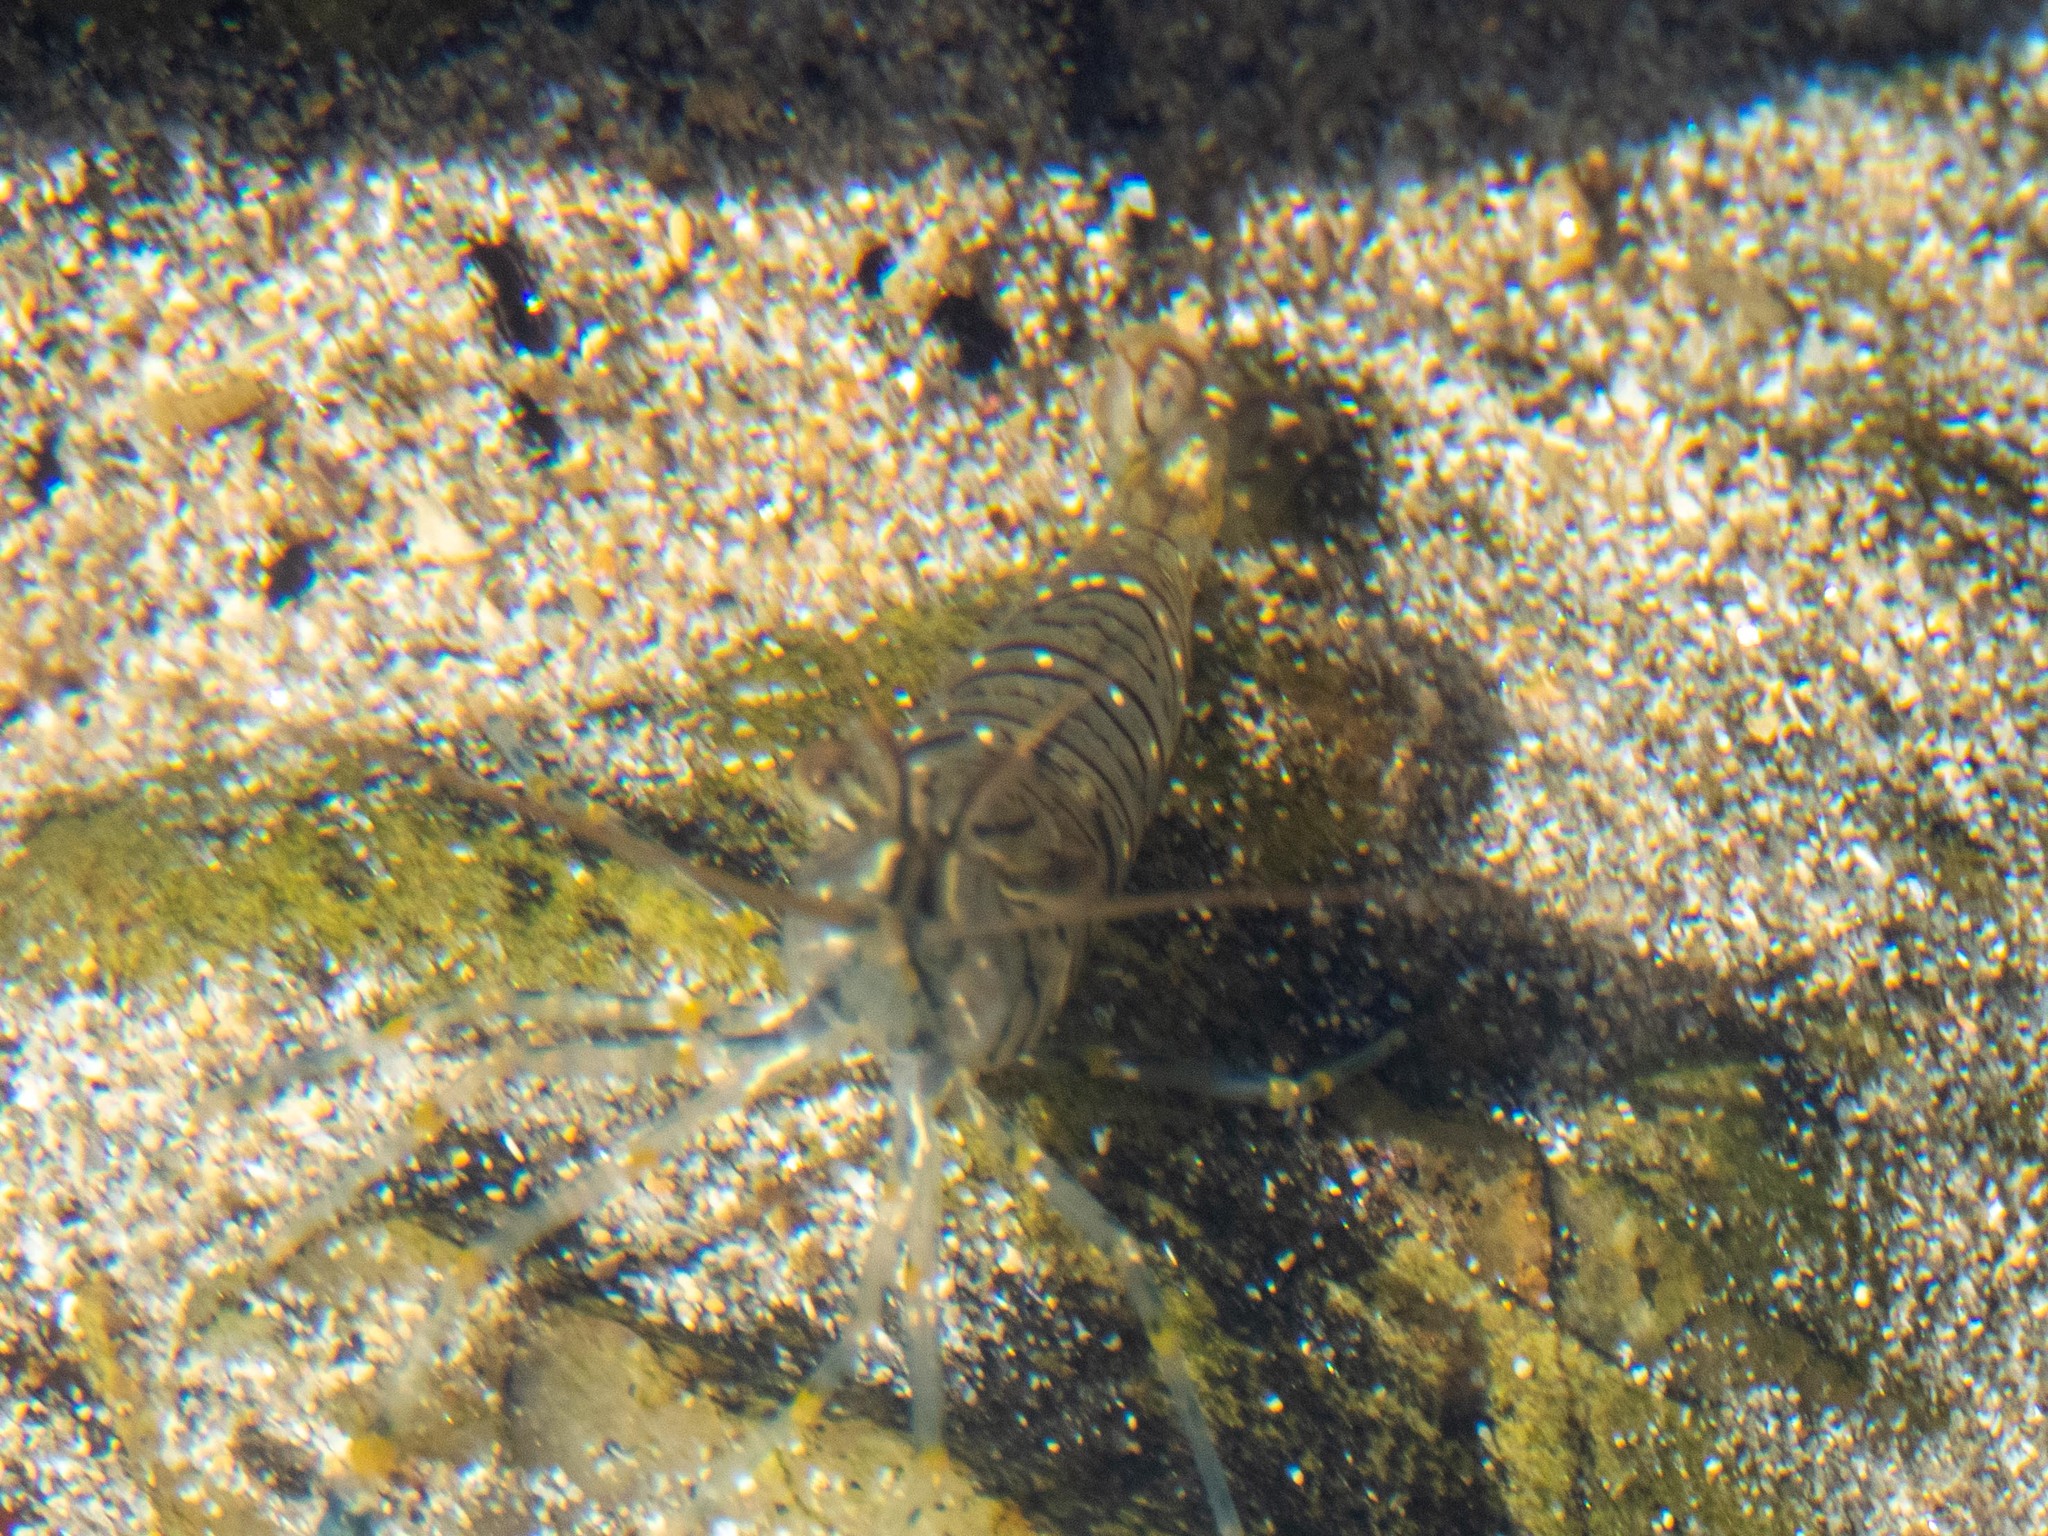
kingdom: Animalia
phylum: Arthropoda
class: Malacostraca
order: Decapoda
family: Palaemonidae
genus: Palaemon
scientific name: Palaemon elegans
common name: Grass prawm
